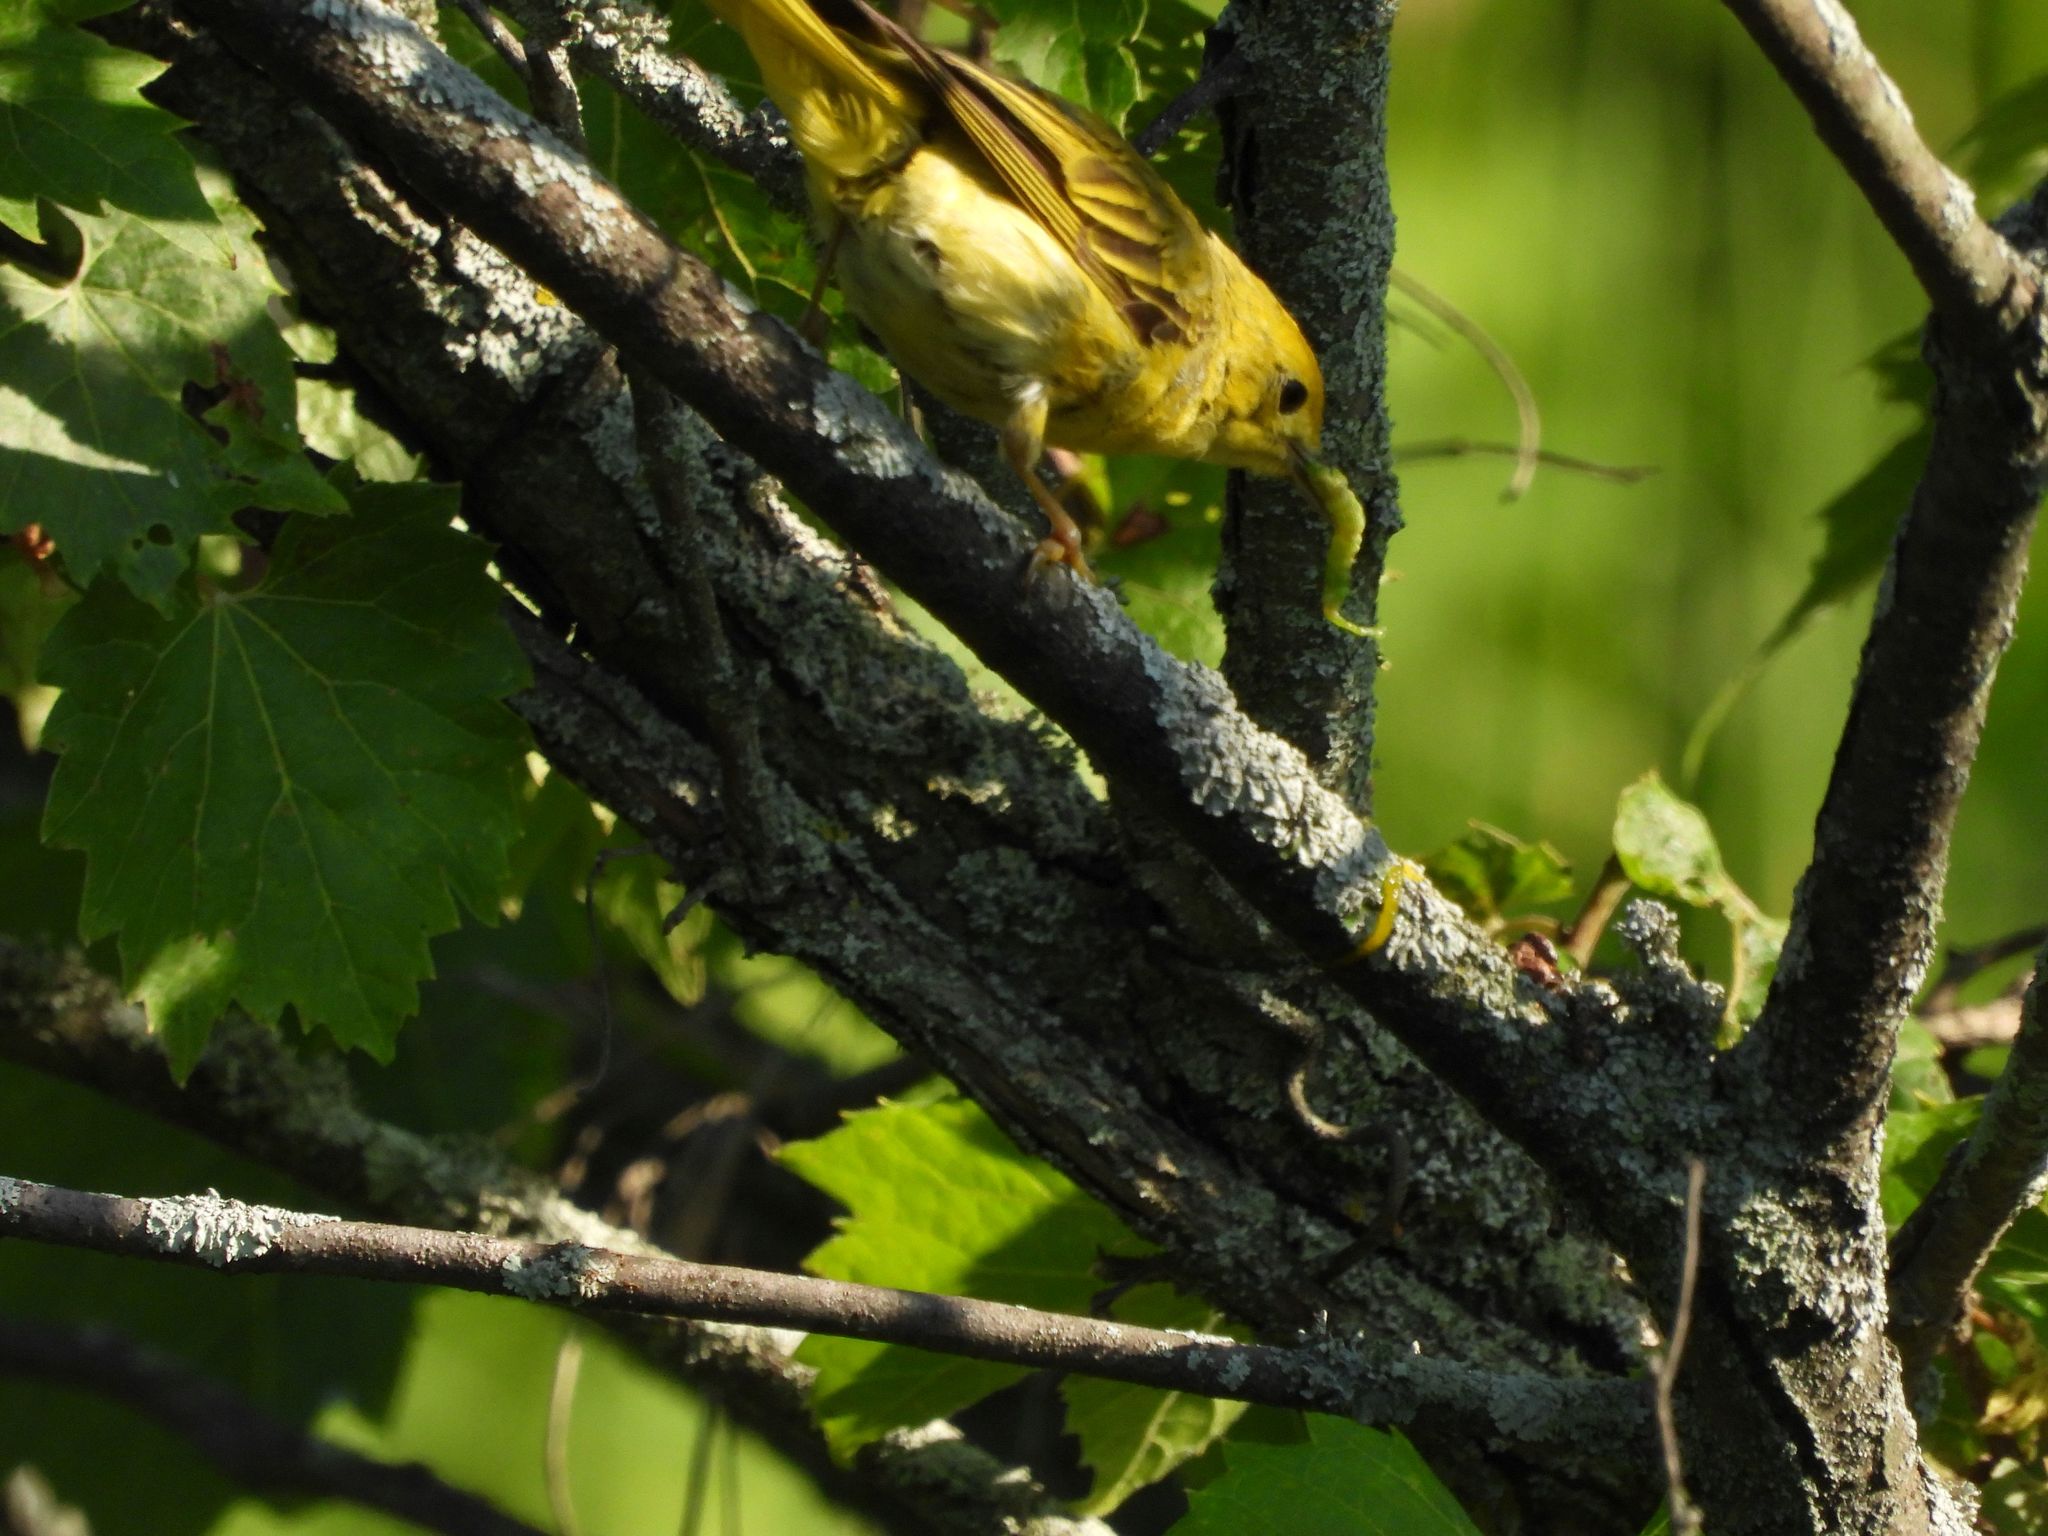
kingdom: Animalia
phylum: Chordata
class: Aves
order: Passeriformes
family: Parulidae
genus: Setophaga
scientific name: Setophaga petechia
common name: Yellow warbler
